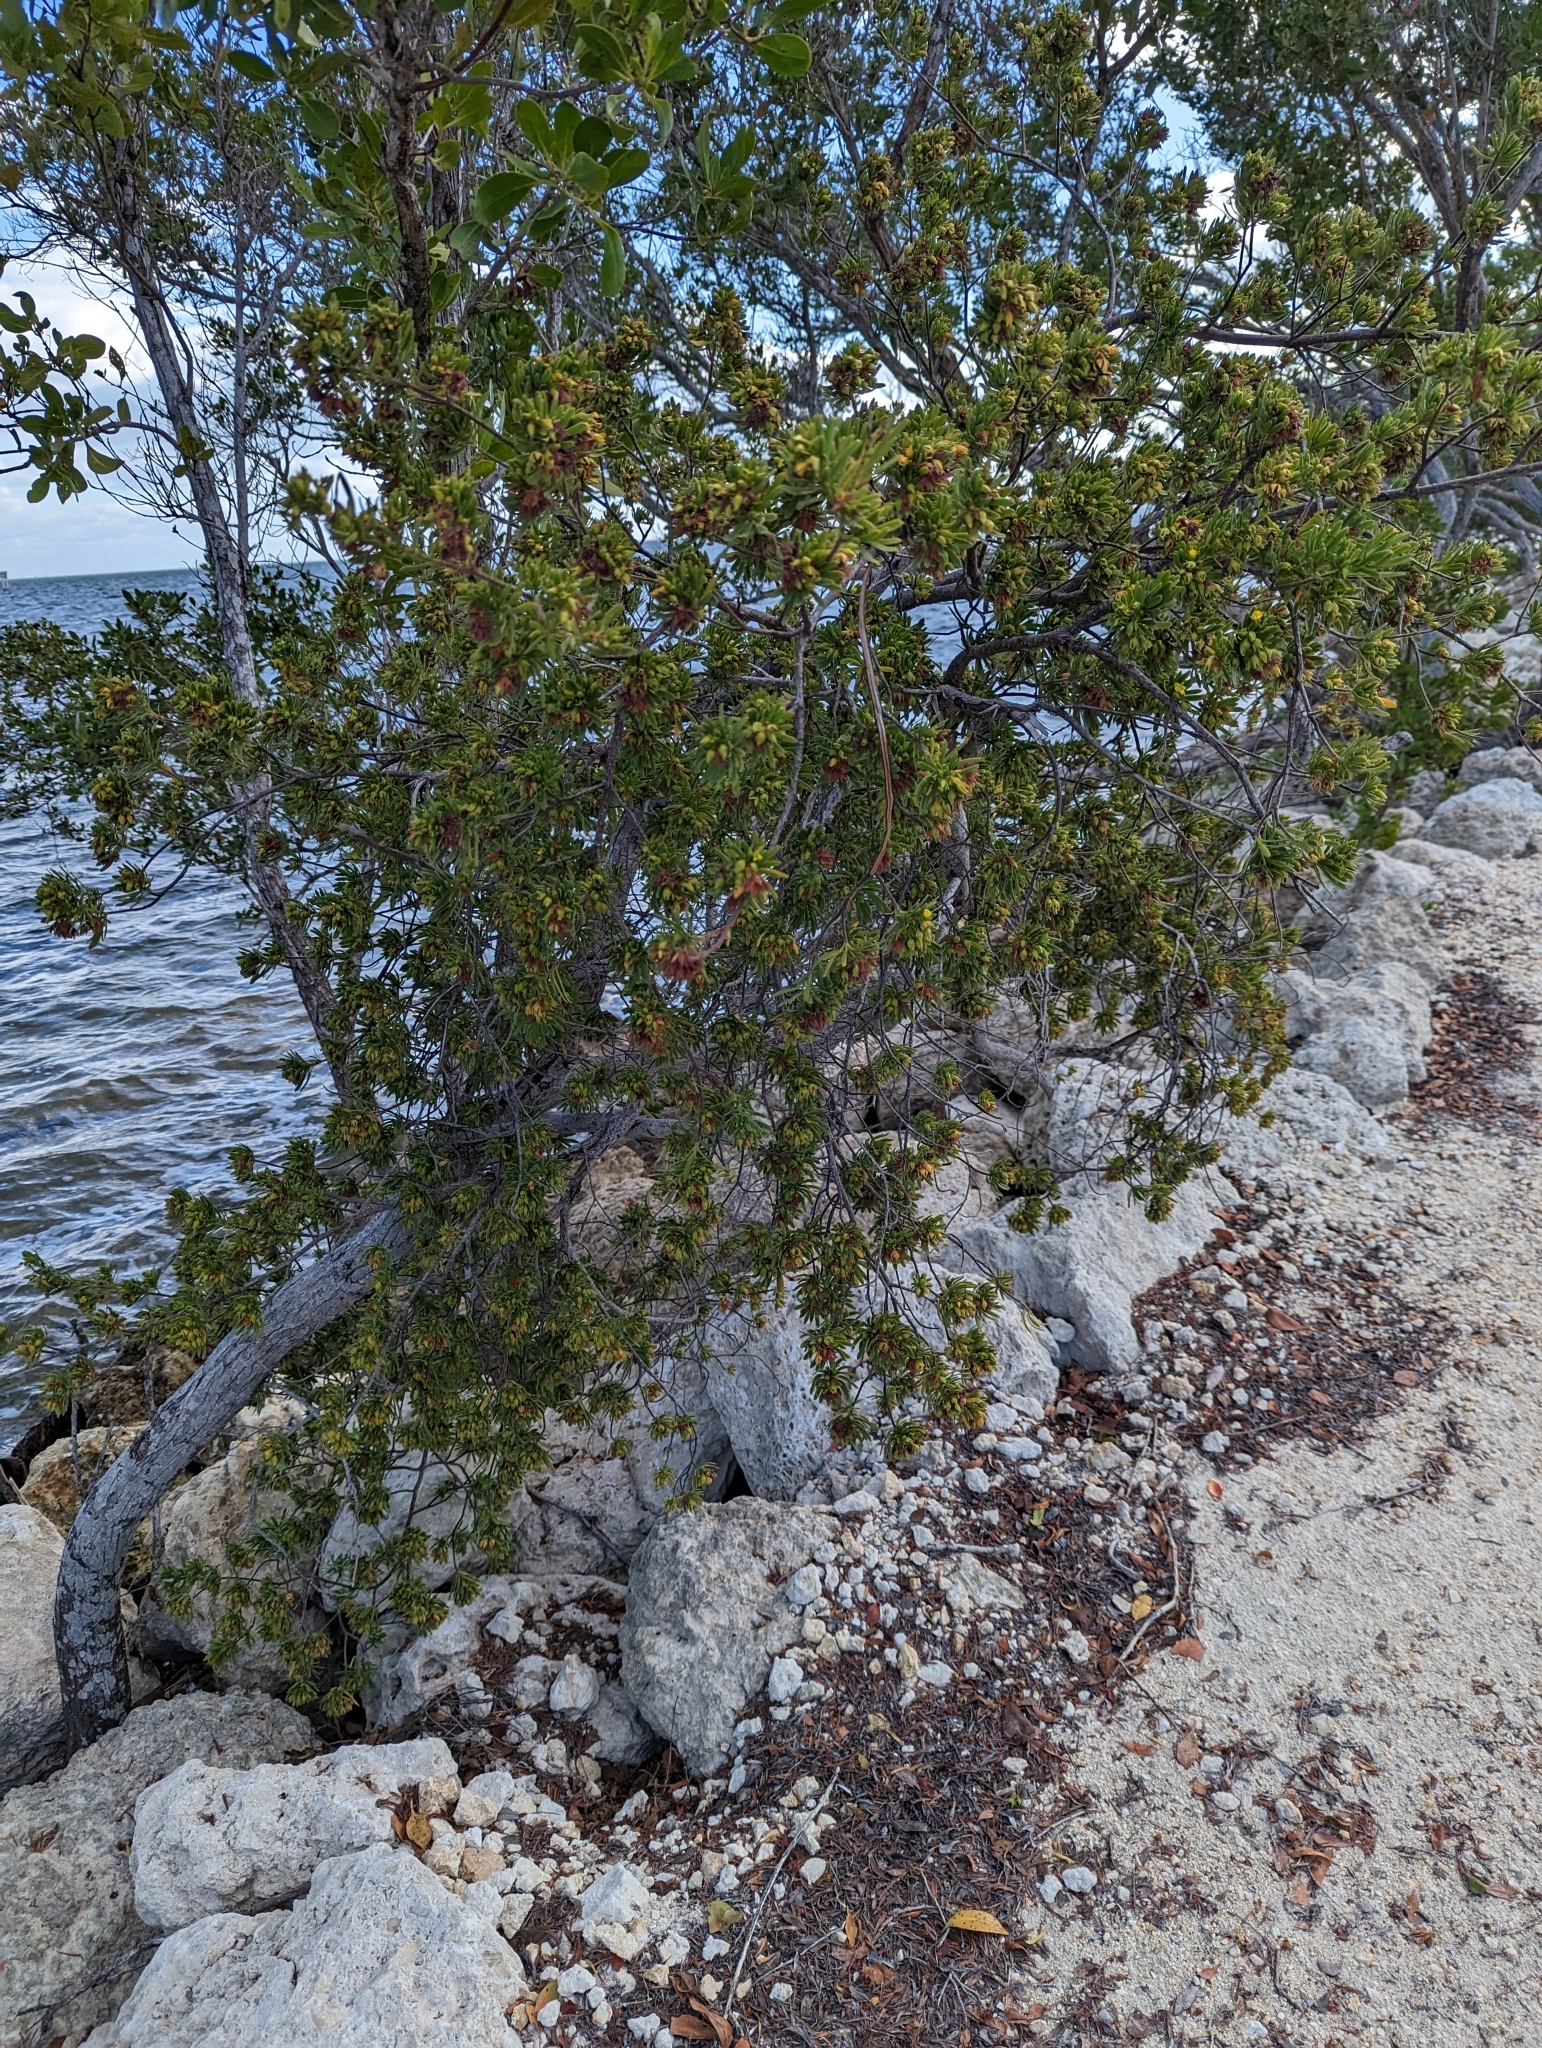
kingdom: Plantae
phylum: Tracheophyta
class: Magnoliopsida
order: Fabales
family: Surianaceae
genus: Suriana
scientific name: Suriana maritima
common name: Bay-cedar
